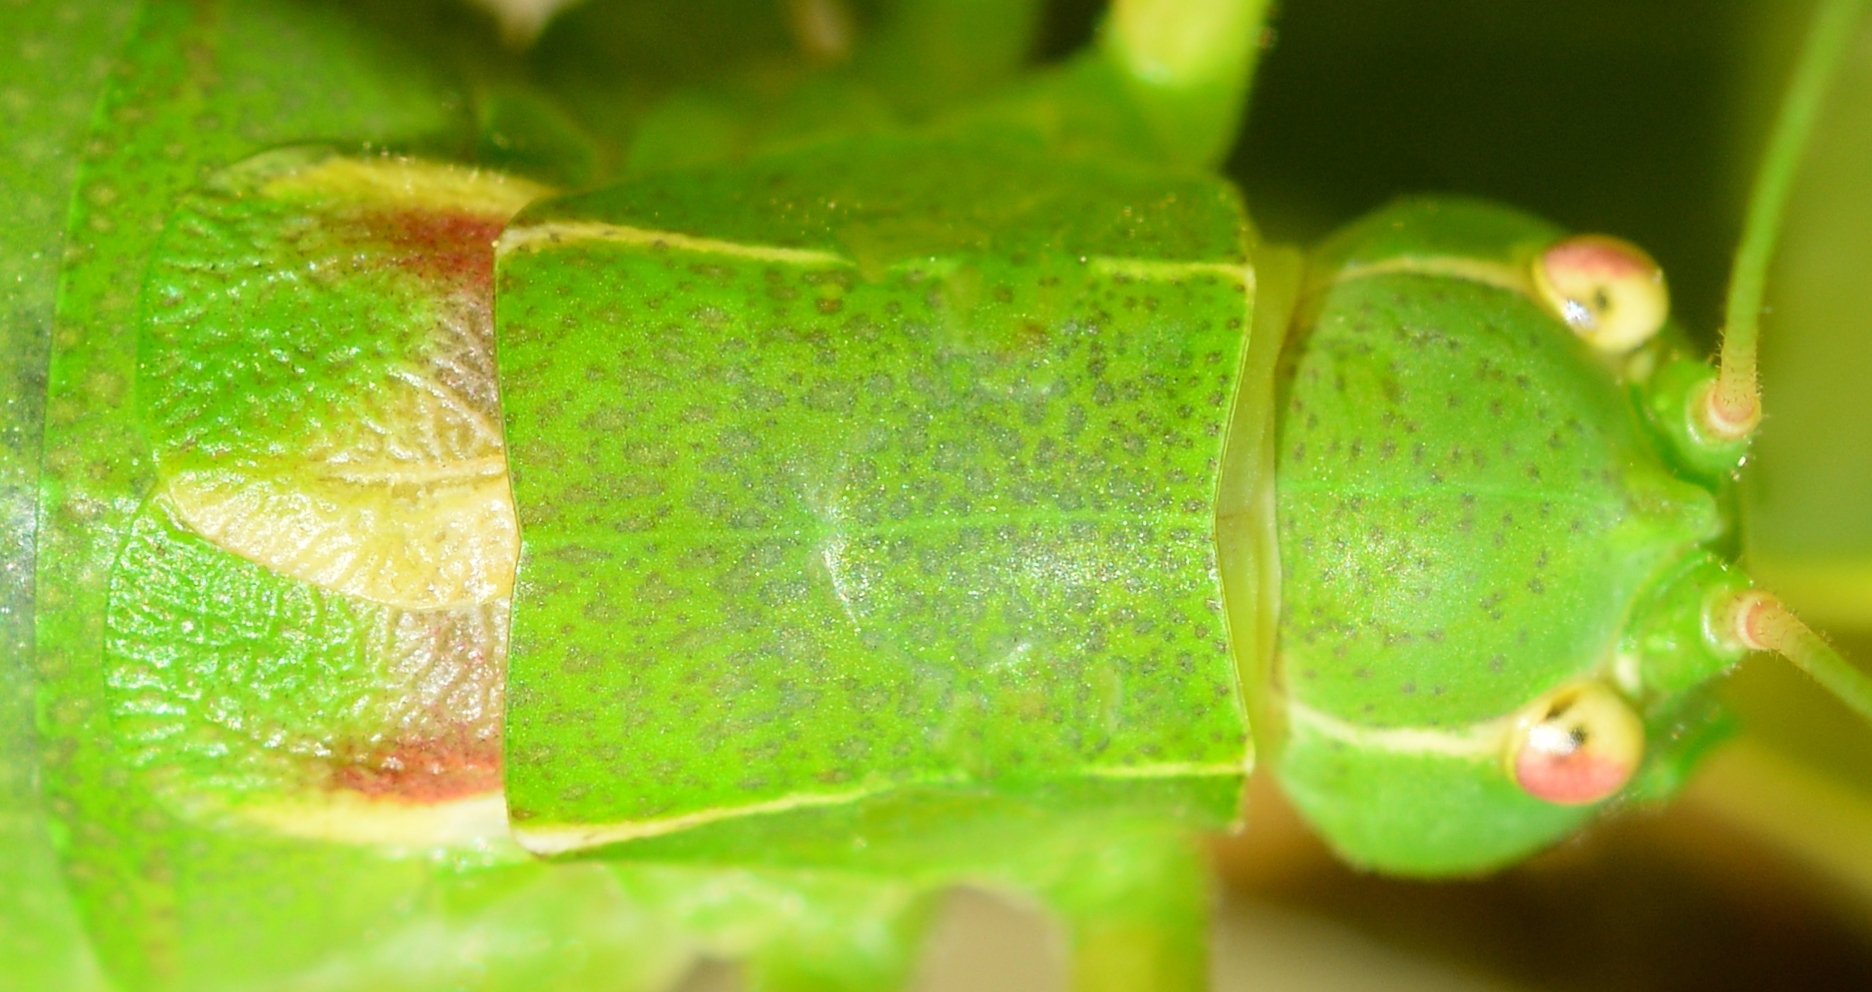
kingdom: Animalia
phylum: Arthropoda
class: Insecta
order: Orthoptera
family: Tettigoniidae
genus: Barbitistes
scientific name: Barbitistes fischeri
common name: Southern saw-tailed bush-cricket
